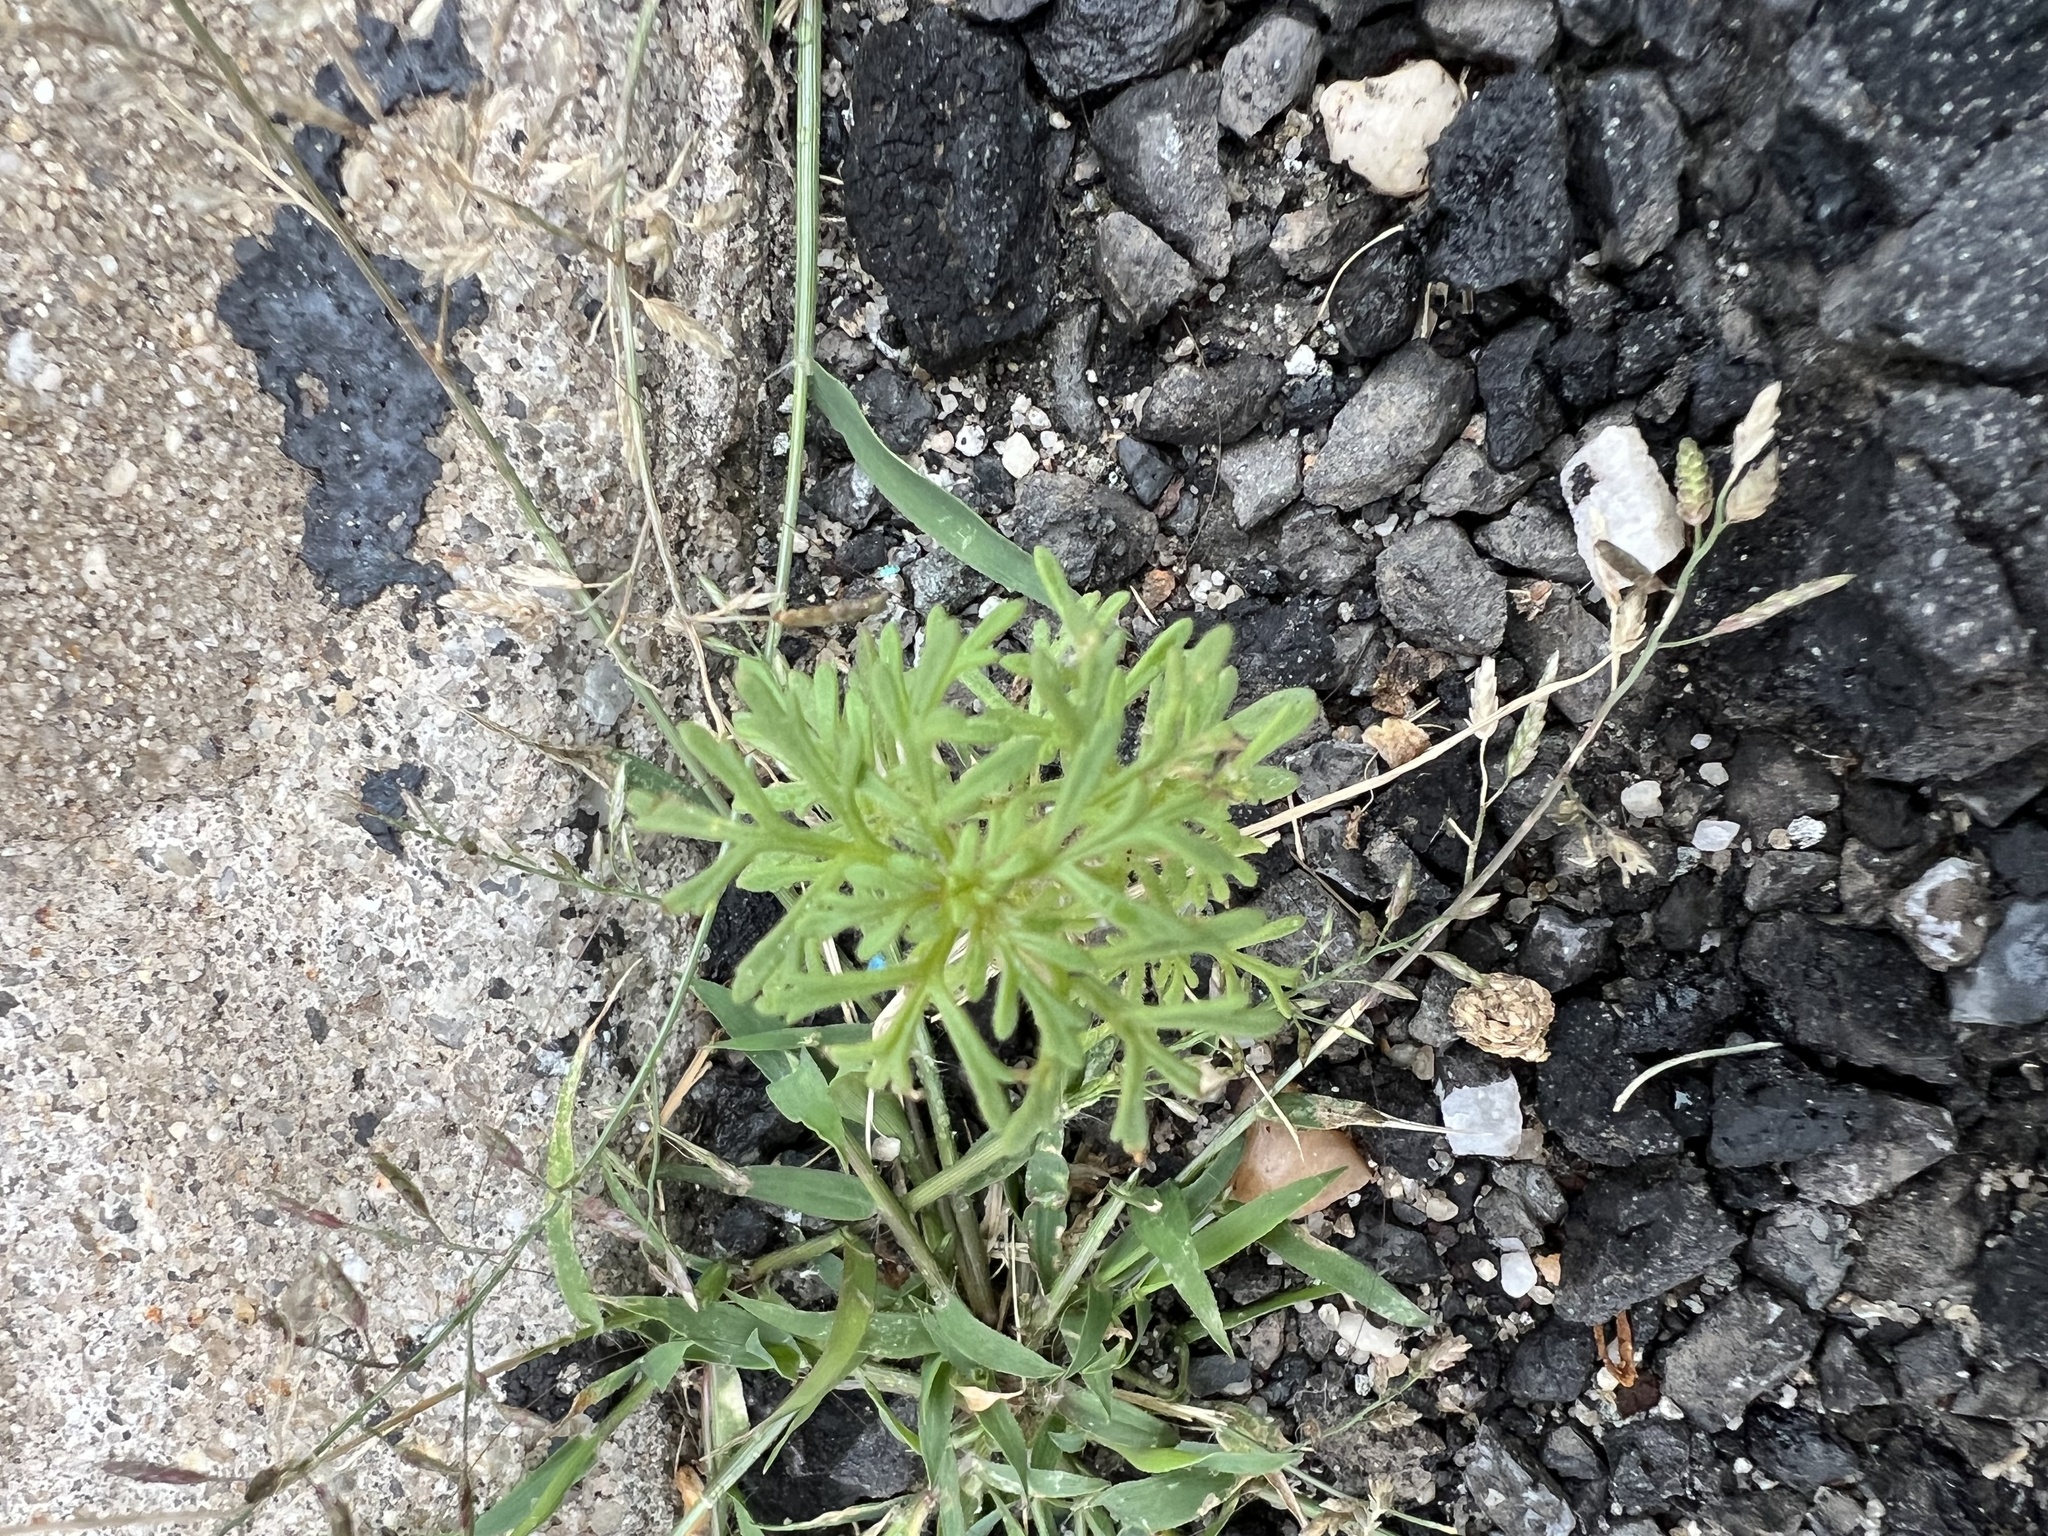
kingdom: Plantae
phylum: Tracheophyta
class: Magnoliopsida
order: Lamiales
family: Plantaginaceae
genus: Leucospora
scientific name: Leucospora multifida
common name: Narrow-leaf paleseed
